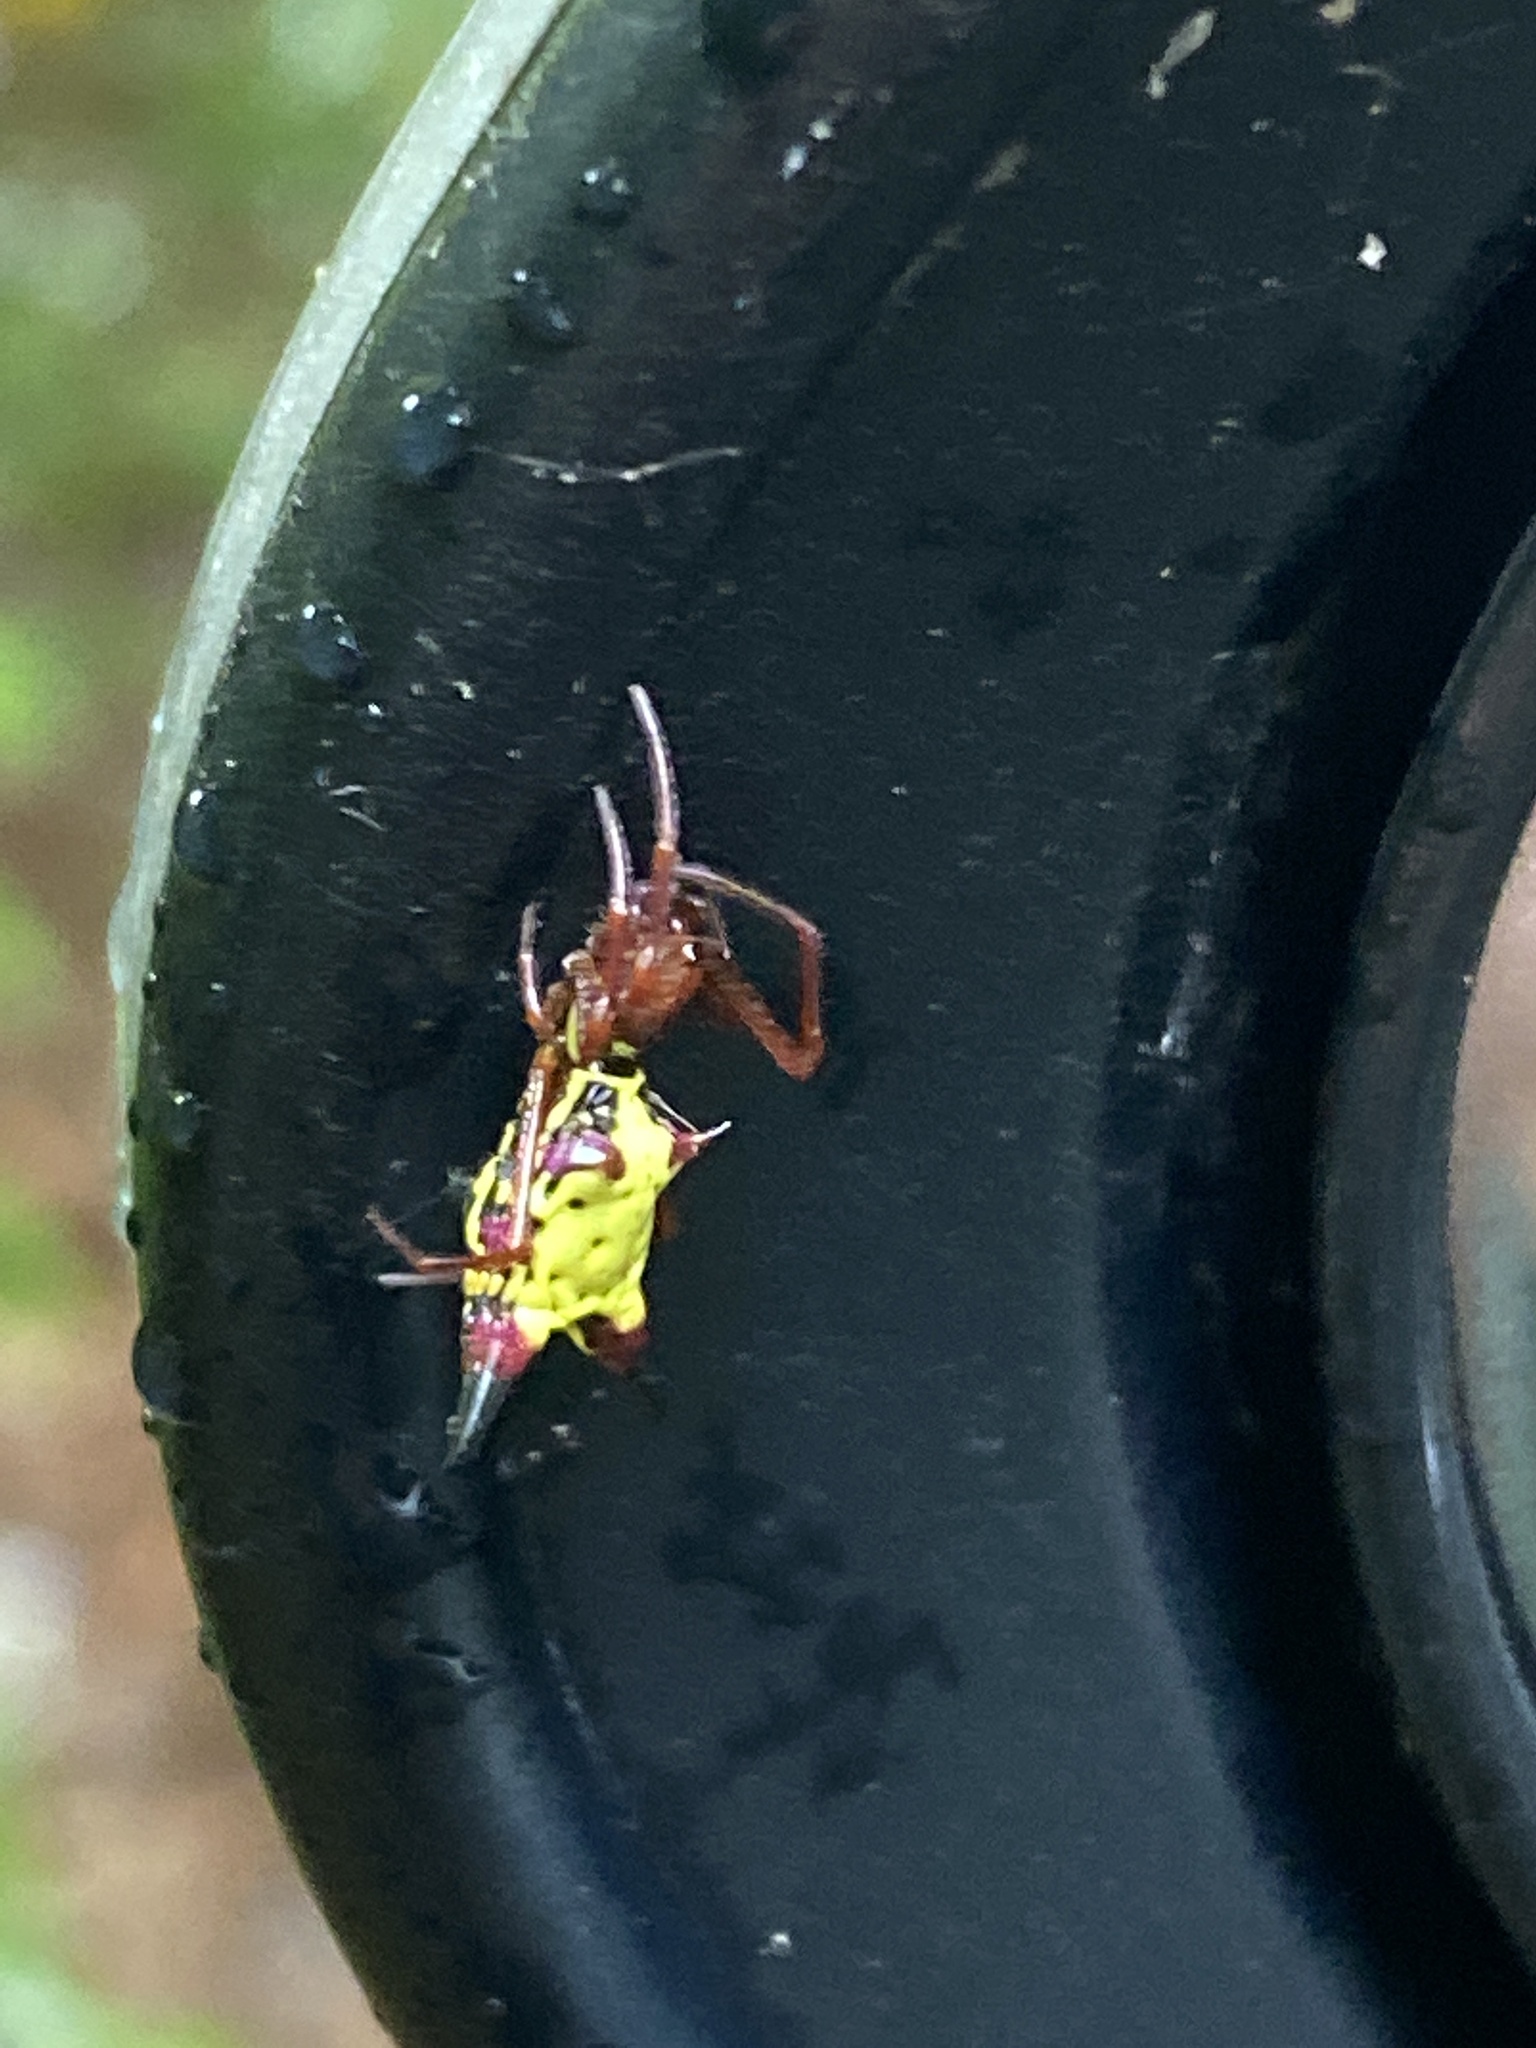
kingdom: Animalia
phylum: Arthropoda
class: Arachnida
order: Araneae
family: Araneidae
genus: Micrathena
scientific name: Micrathena sagittata
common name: Orb weavers
